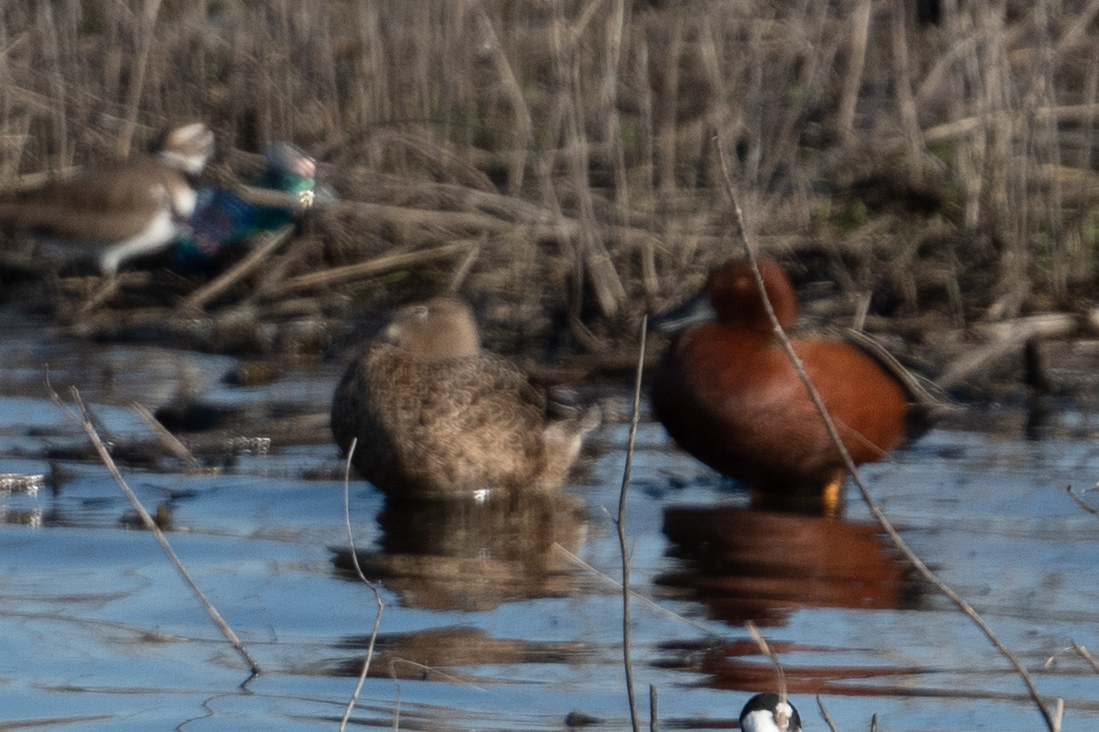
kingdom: Animalia
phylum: Chordata
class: Aves
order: Anseriformes
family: Anatidae
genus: Spatula
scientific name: Spatula cyanoptera
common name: Cinnamon teal
